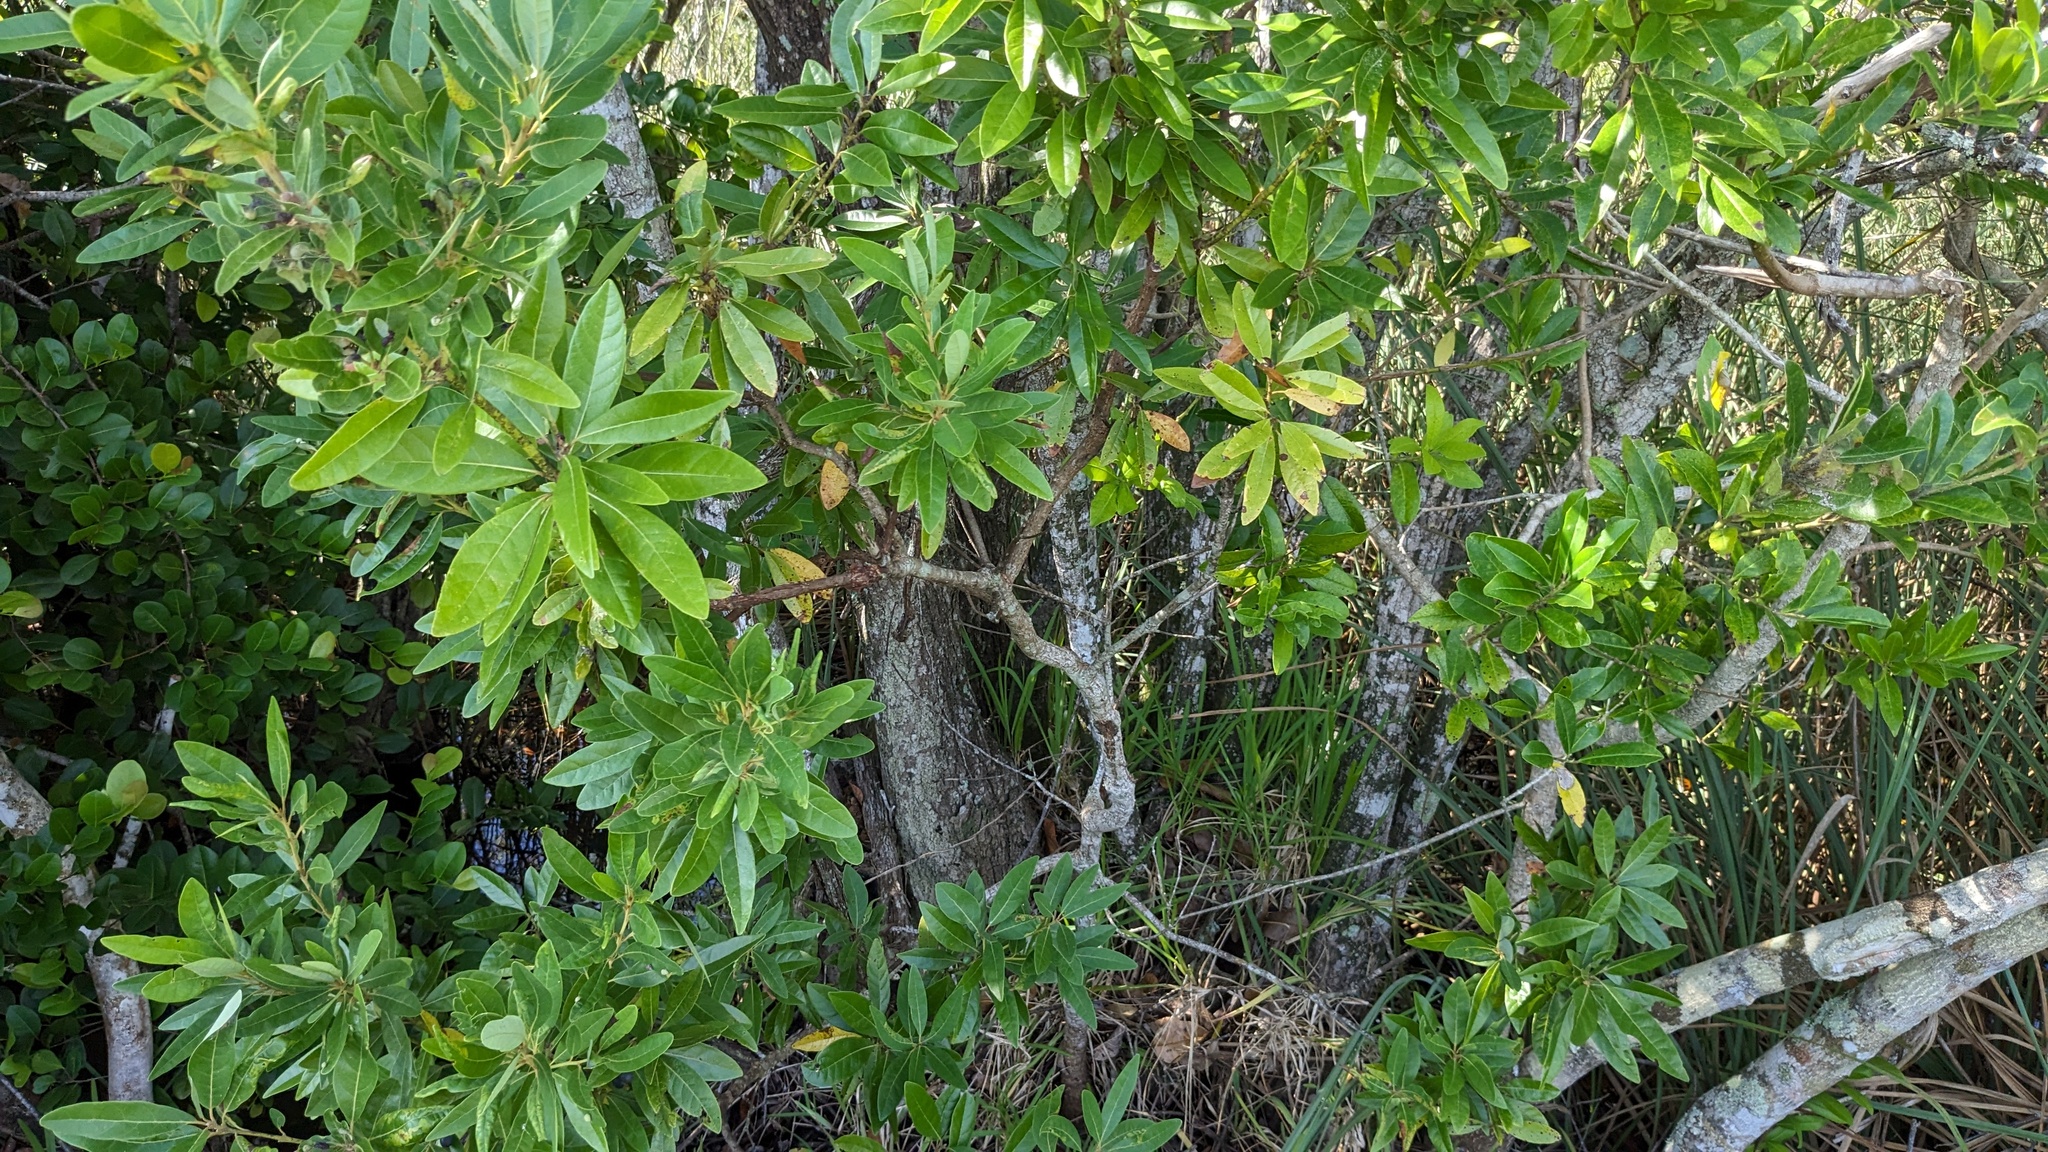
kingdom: Plantae
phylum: Tracheophyta
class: Magnoliopsida
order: Laurales
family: Lauraceae
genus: Persea
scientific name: Persea palustris
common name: Swampbay
